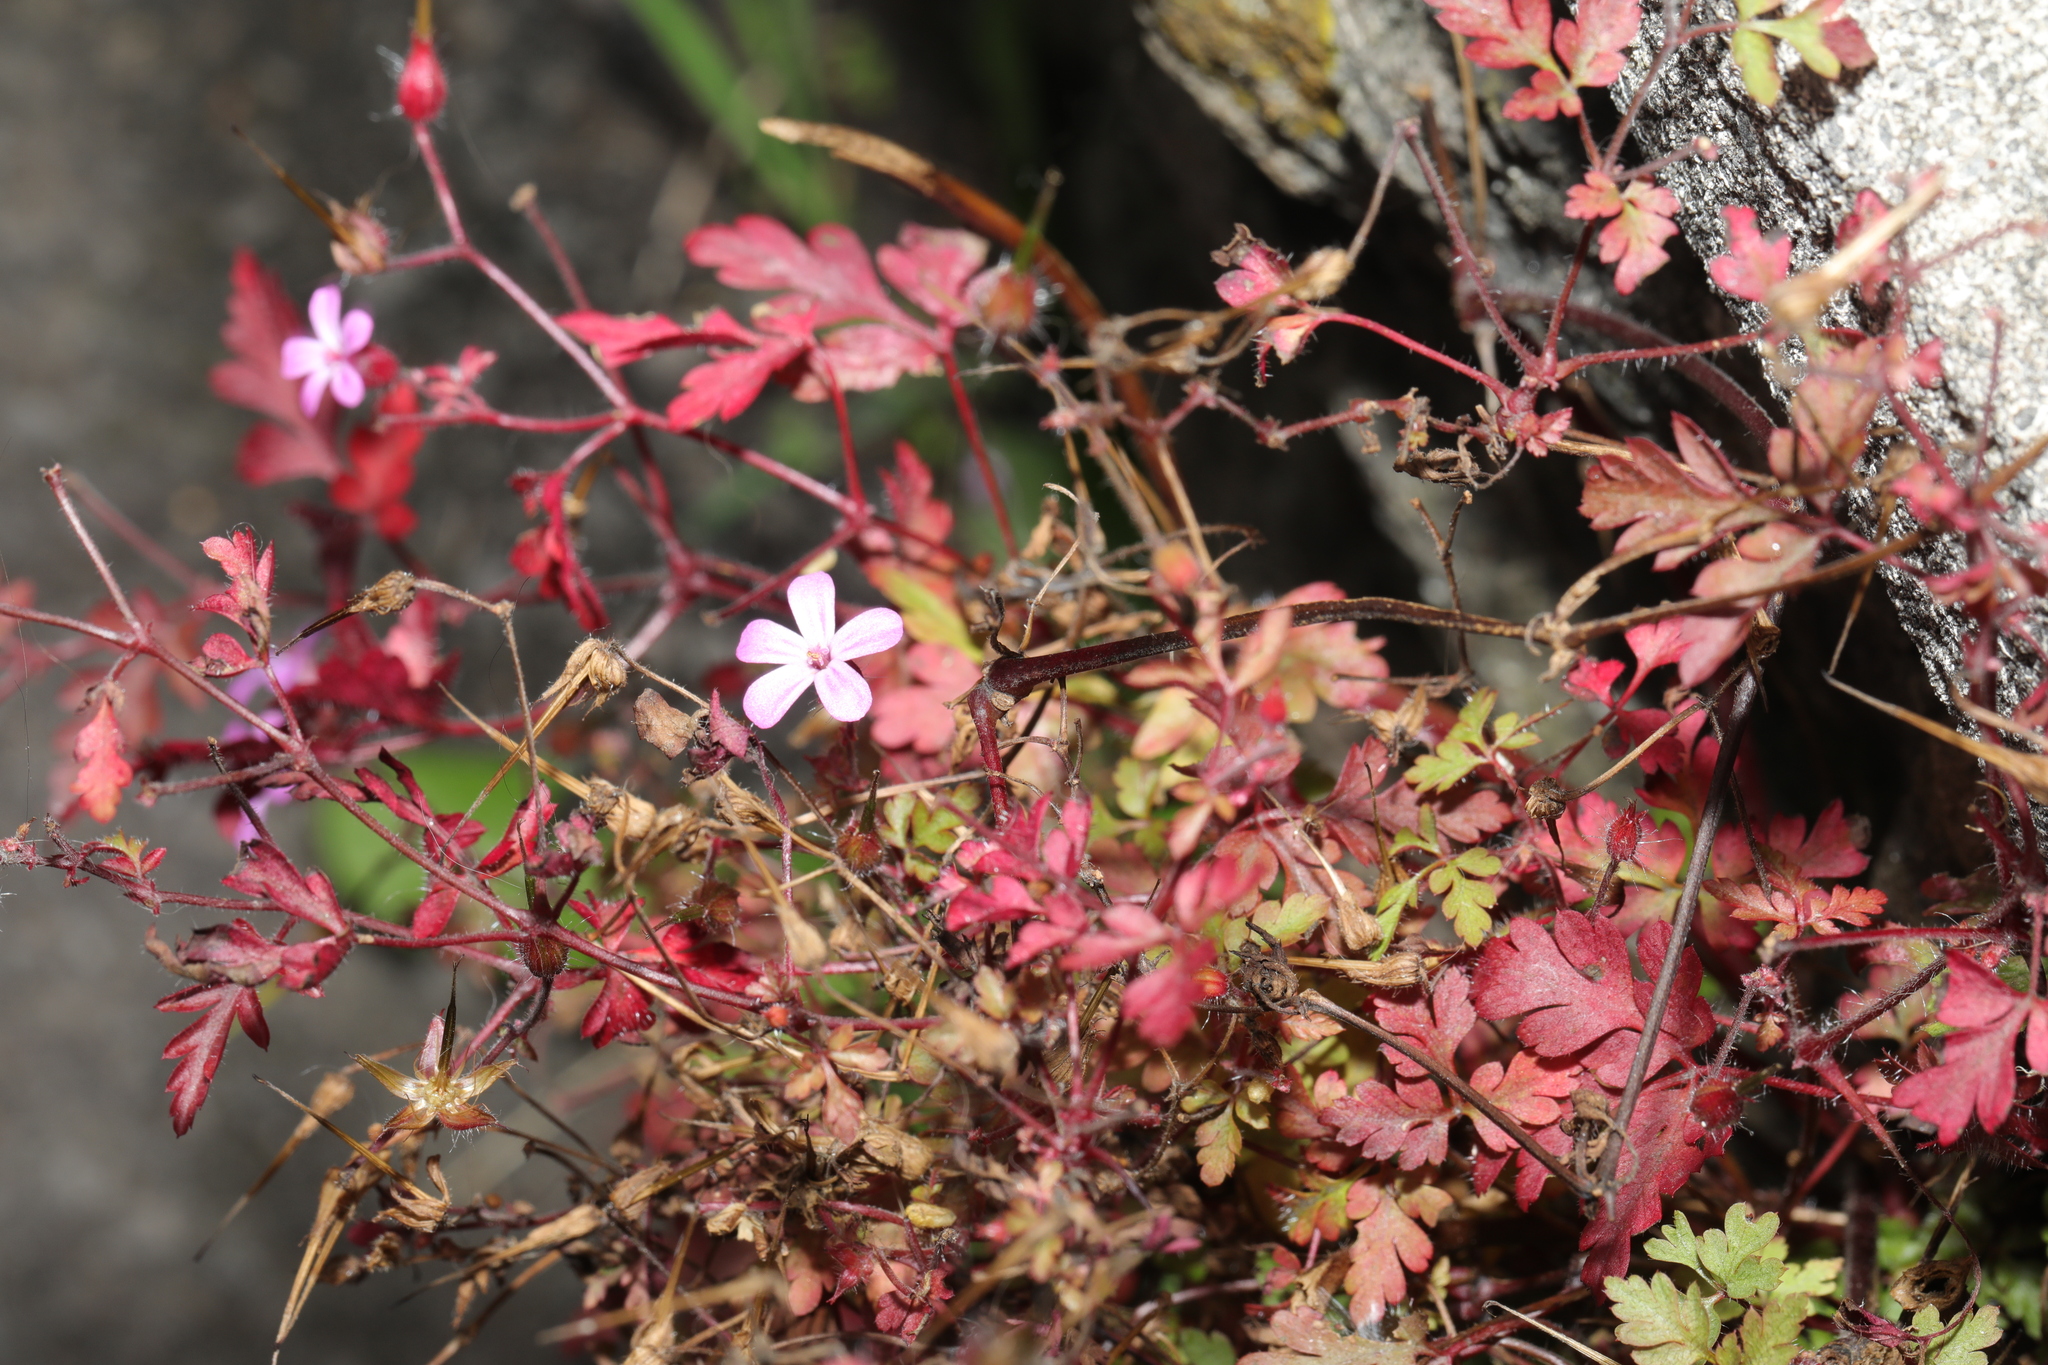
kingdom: Plantae
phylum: Tracheophyta
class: Magnoliopsida
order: Geraniales
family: Geraniaceae
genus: Geranium
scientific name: Geranium robertianum
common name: Herb-robert
